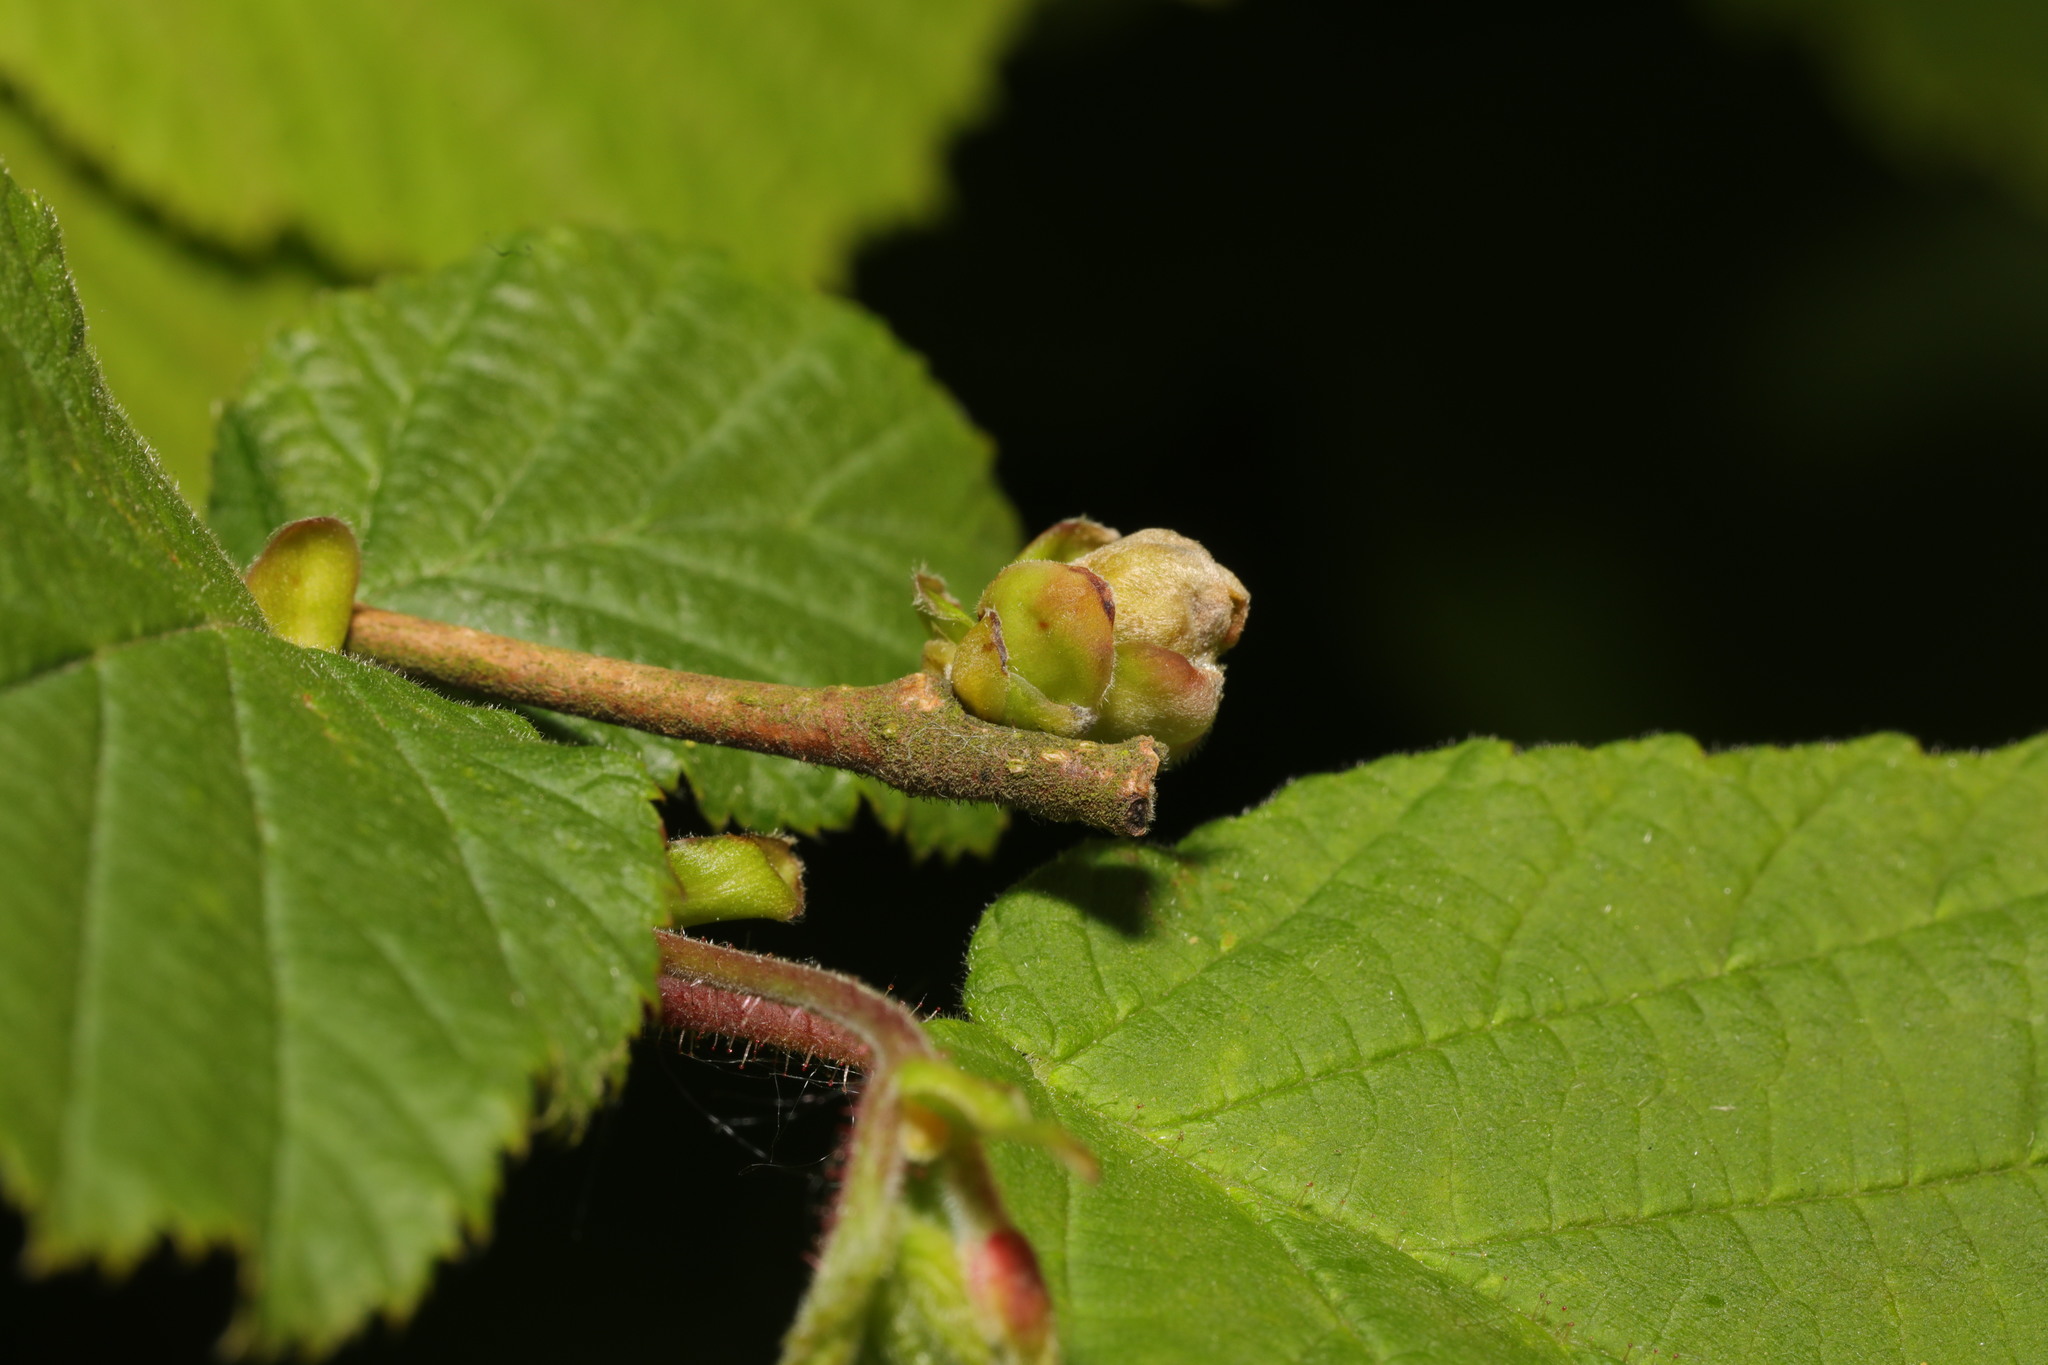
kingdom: Animalia
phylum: Arthropoda
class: Arachnida
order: Trombidiformes
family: Phytoptidae
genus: Phytoptus
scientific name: Phytoptus avellanae
